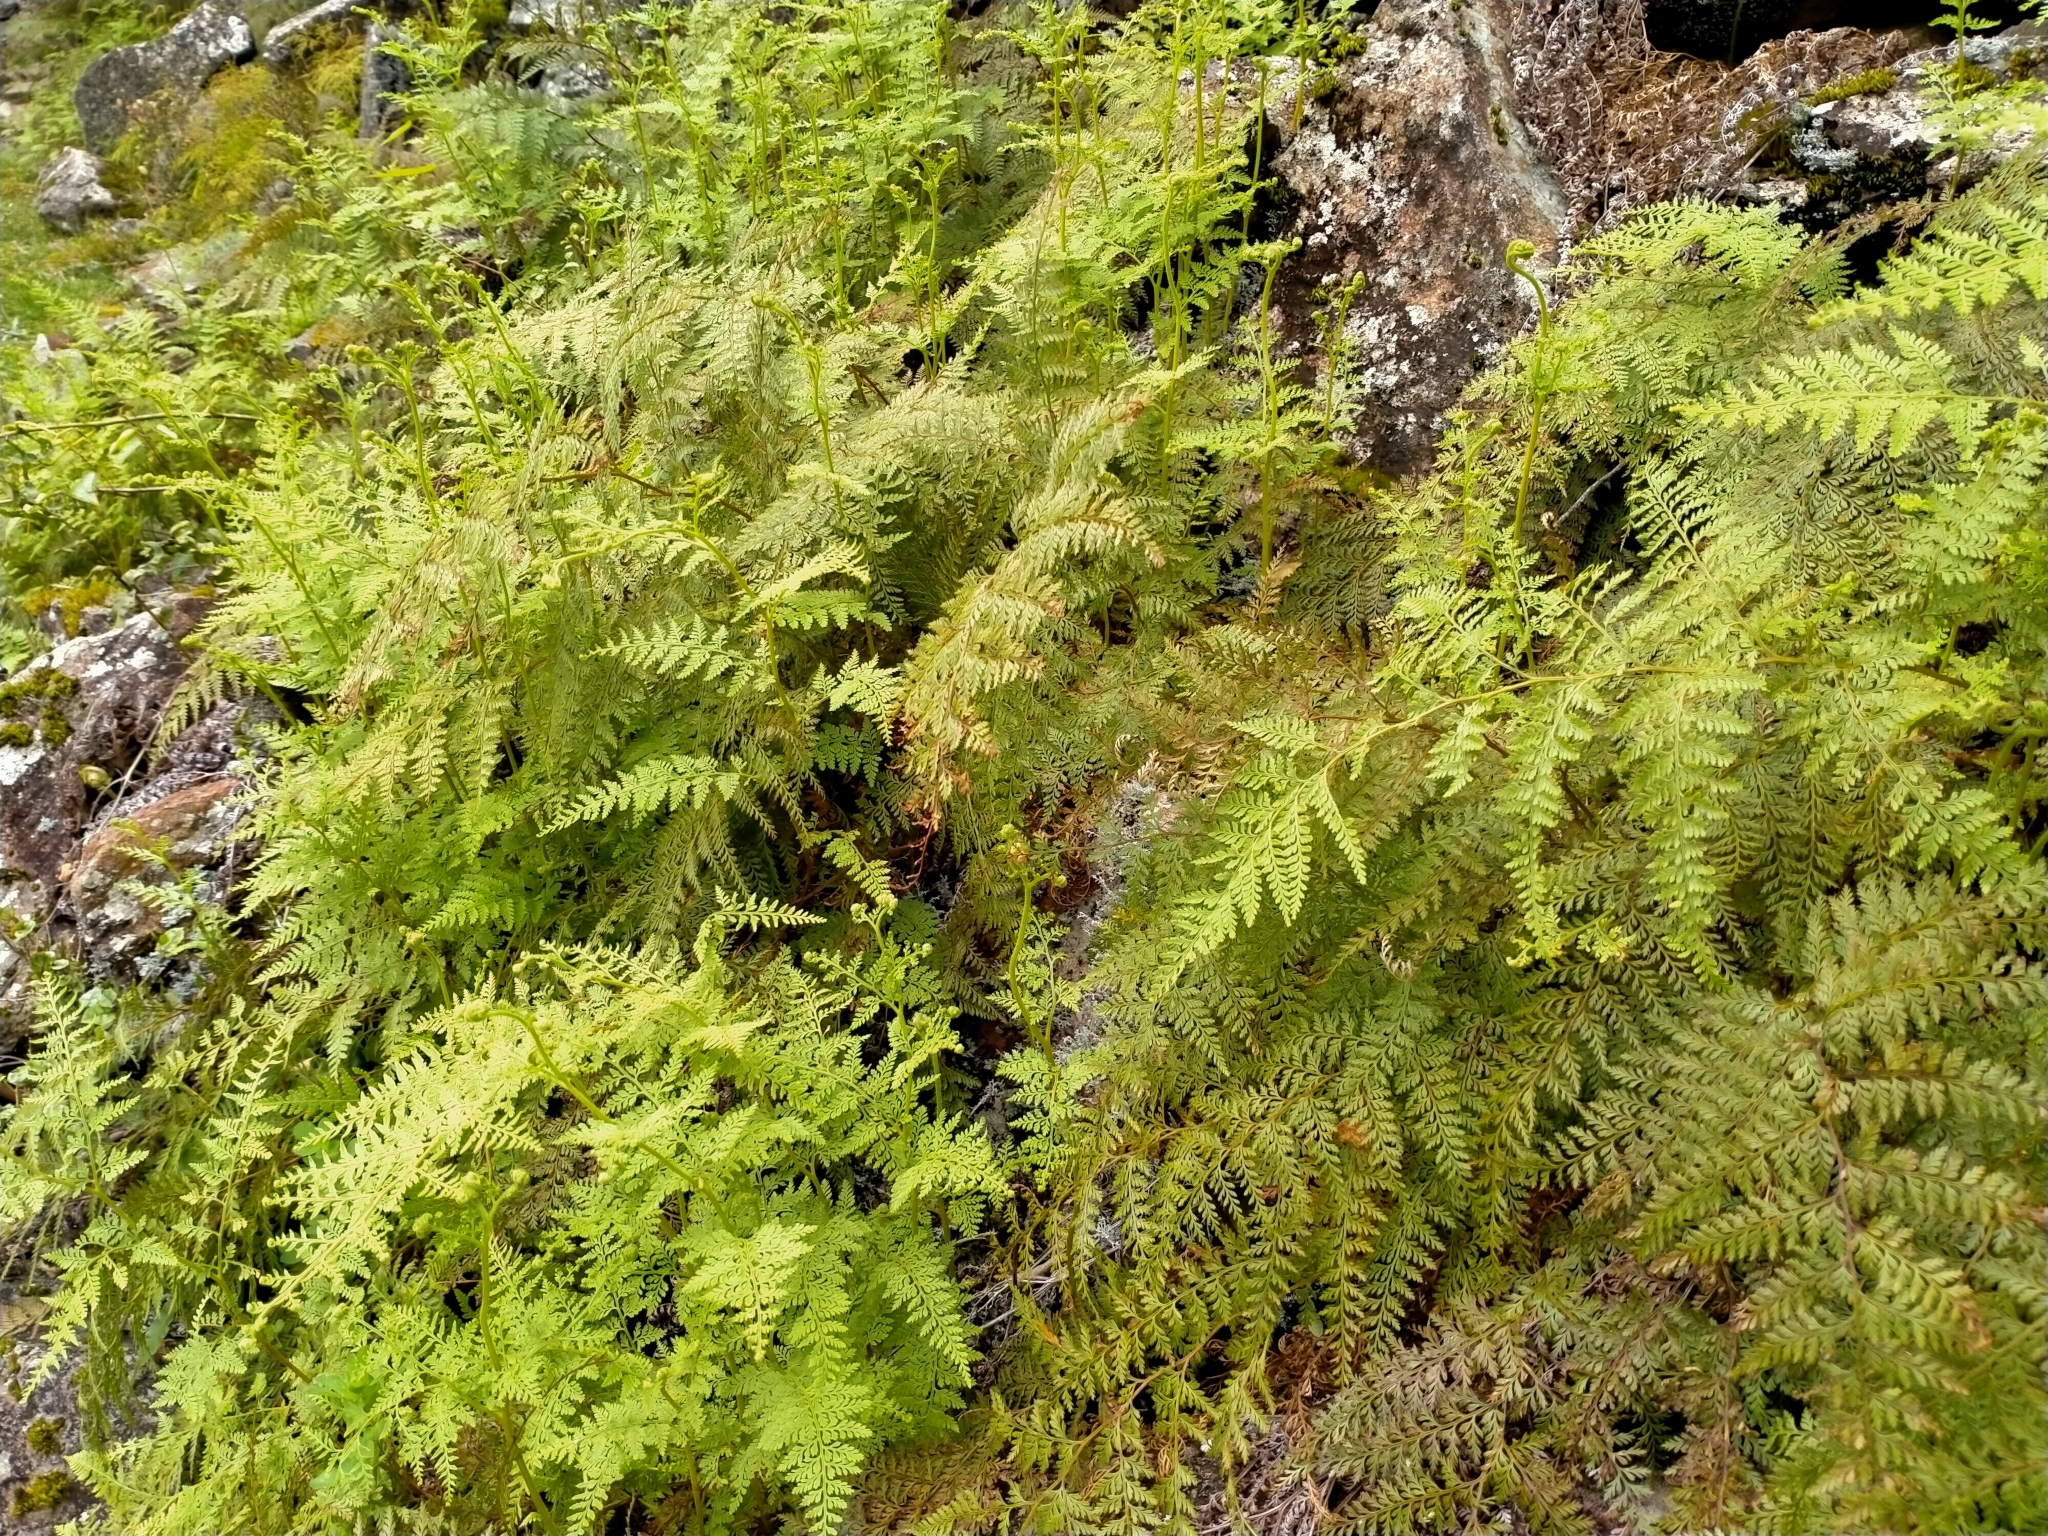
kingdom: Plantae
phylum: Tracheophyta
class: Polypodiopsida
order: Polypodiales
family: Dennstaedtiaceae
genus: Paesia
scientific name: Paesia scaberula
